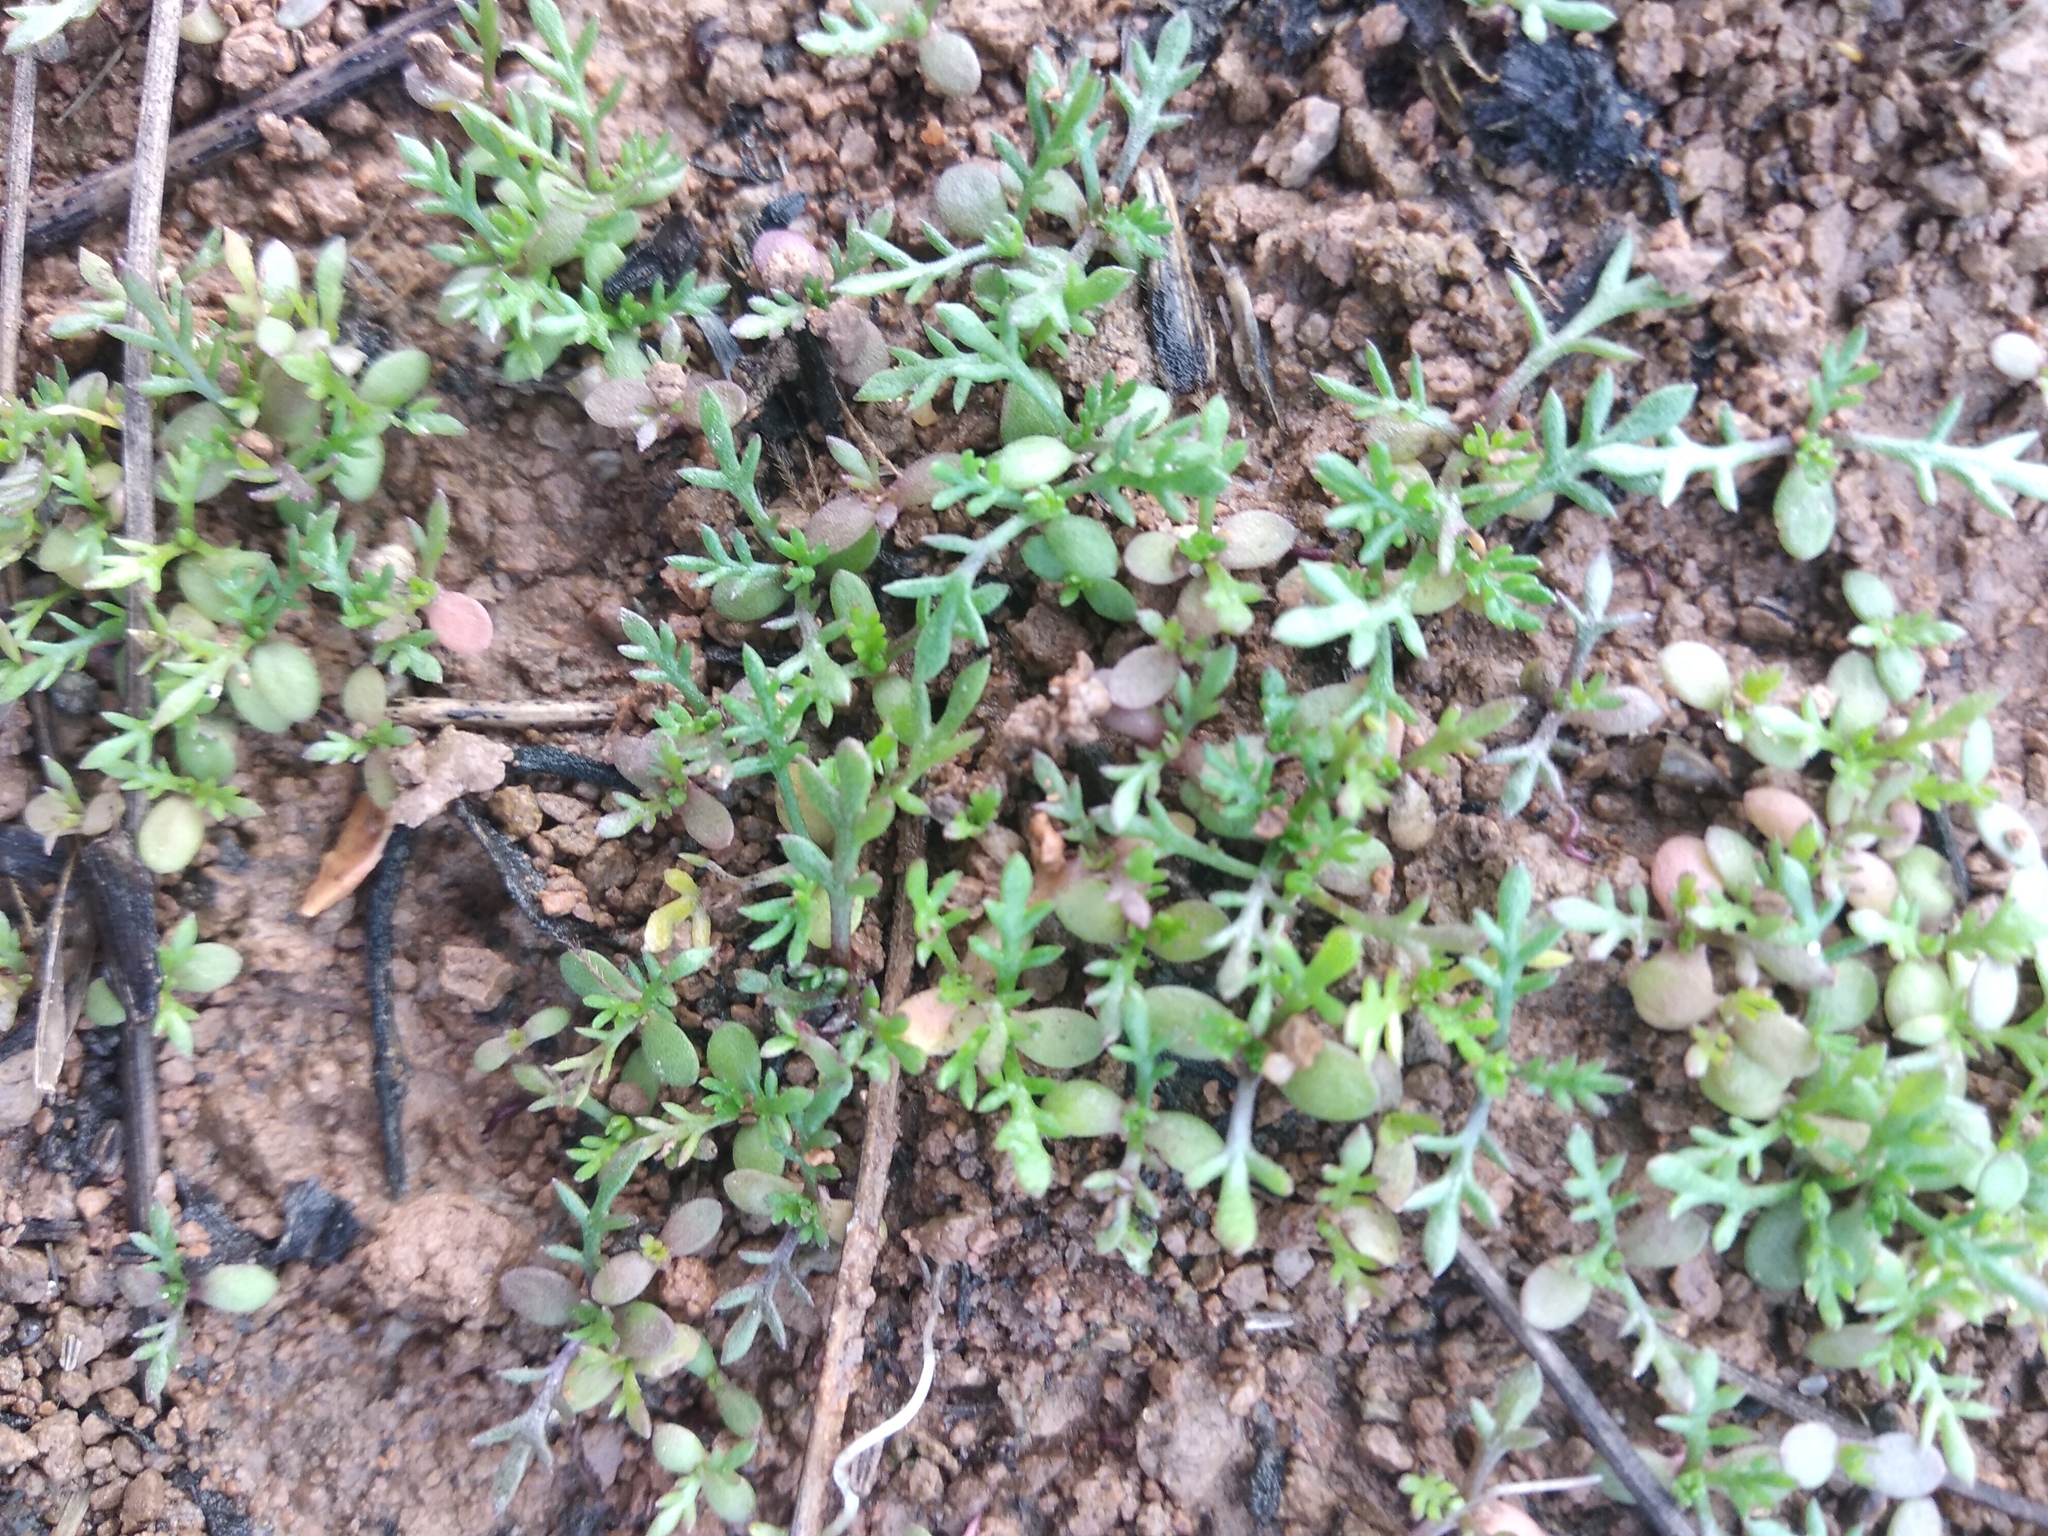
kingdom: Plantae
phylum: Tracheophyta
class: Magnoliopsida
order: Asterales
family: Asteraceae
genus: Matricaria
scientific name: Matricaria discoidea
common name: Disc mayweed
